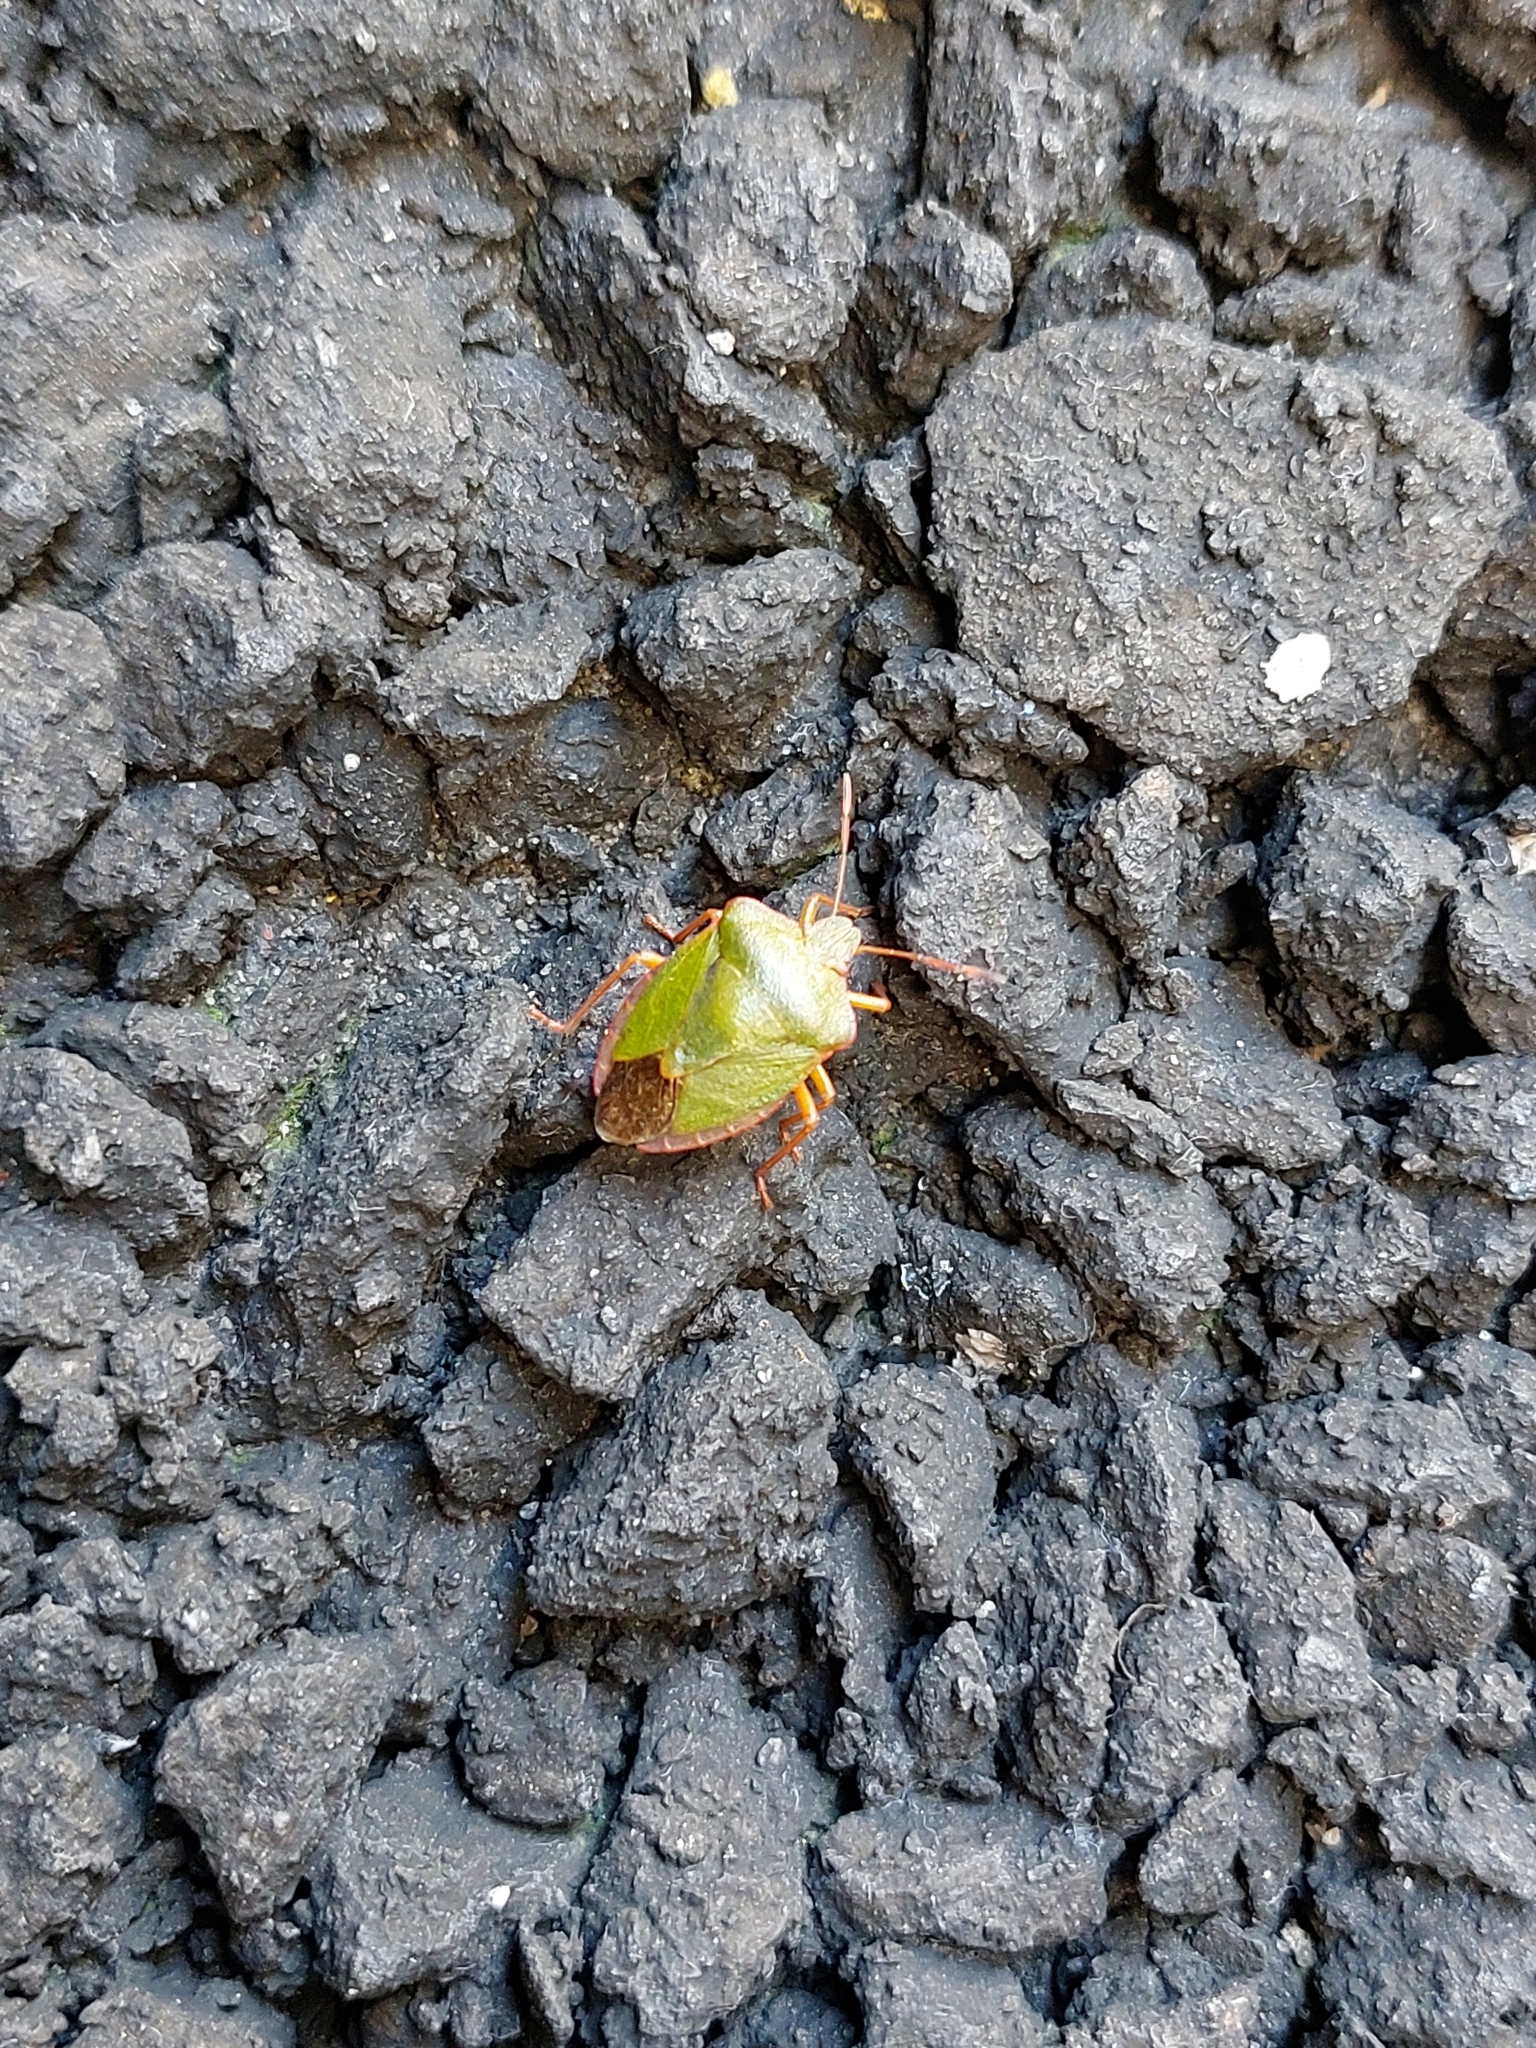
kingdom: Animalia
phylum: Arthropoda
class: Insecta
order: Hemiptera
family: Pentatomidae
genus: Palomena
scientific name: Palomena prasina
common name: Green shieldbug
